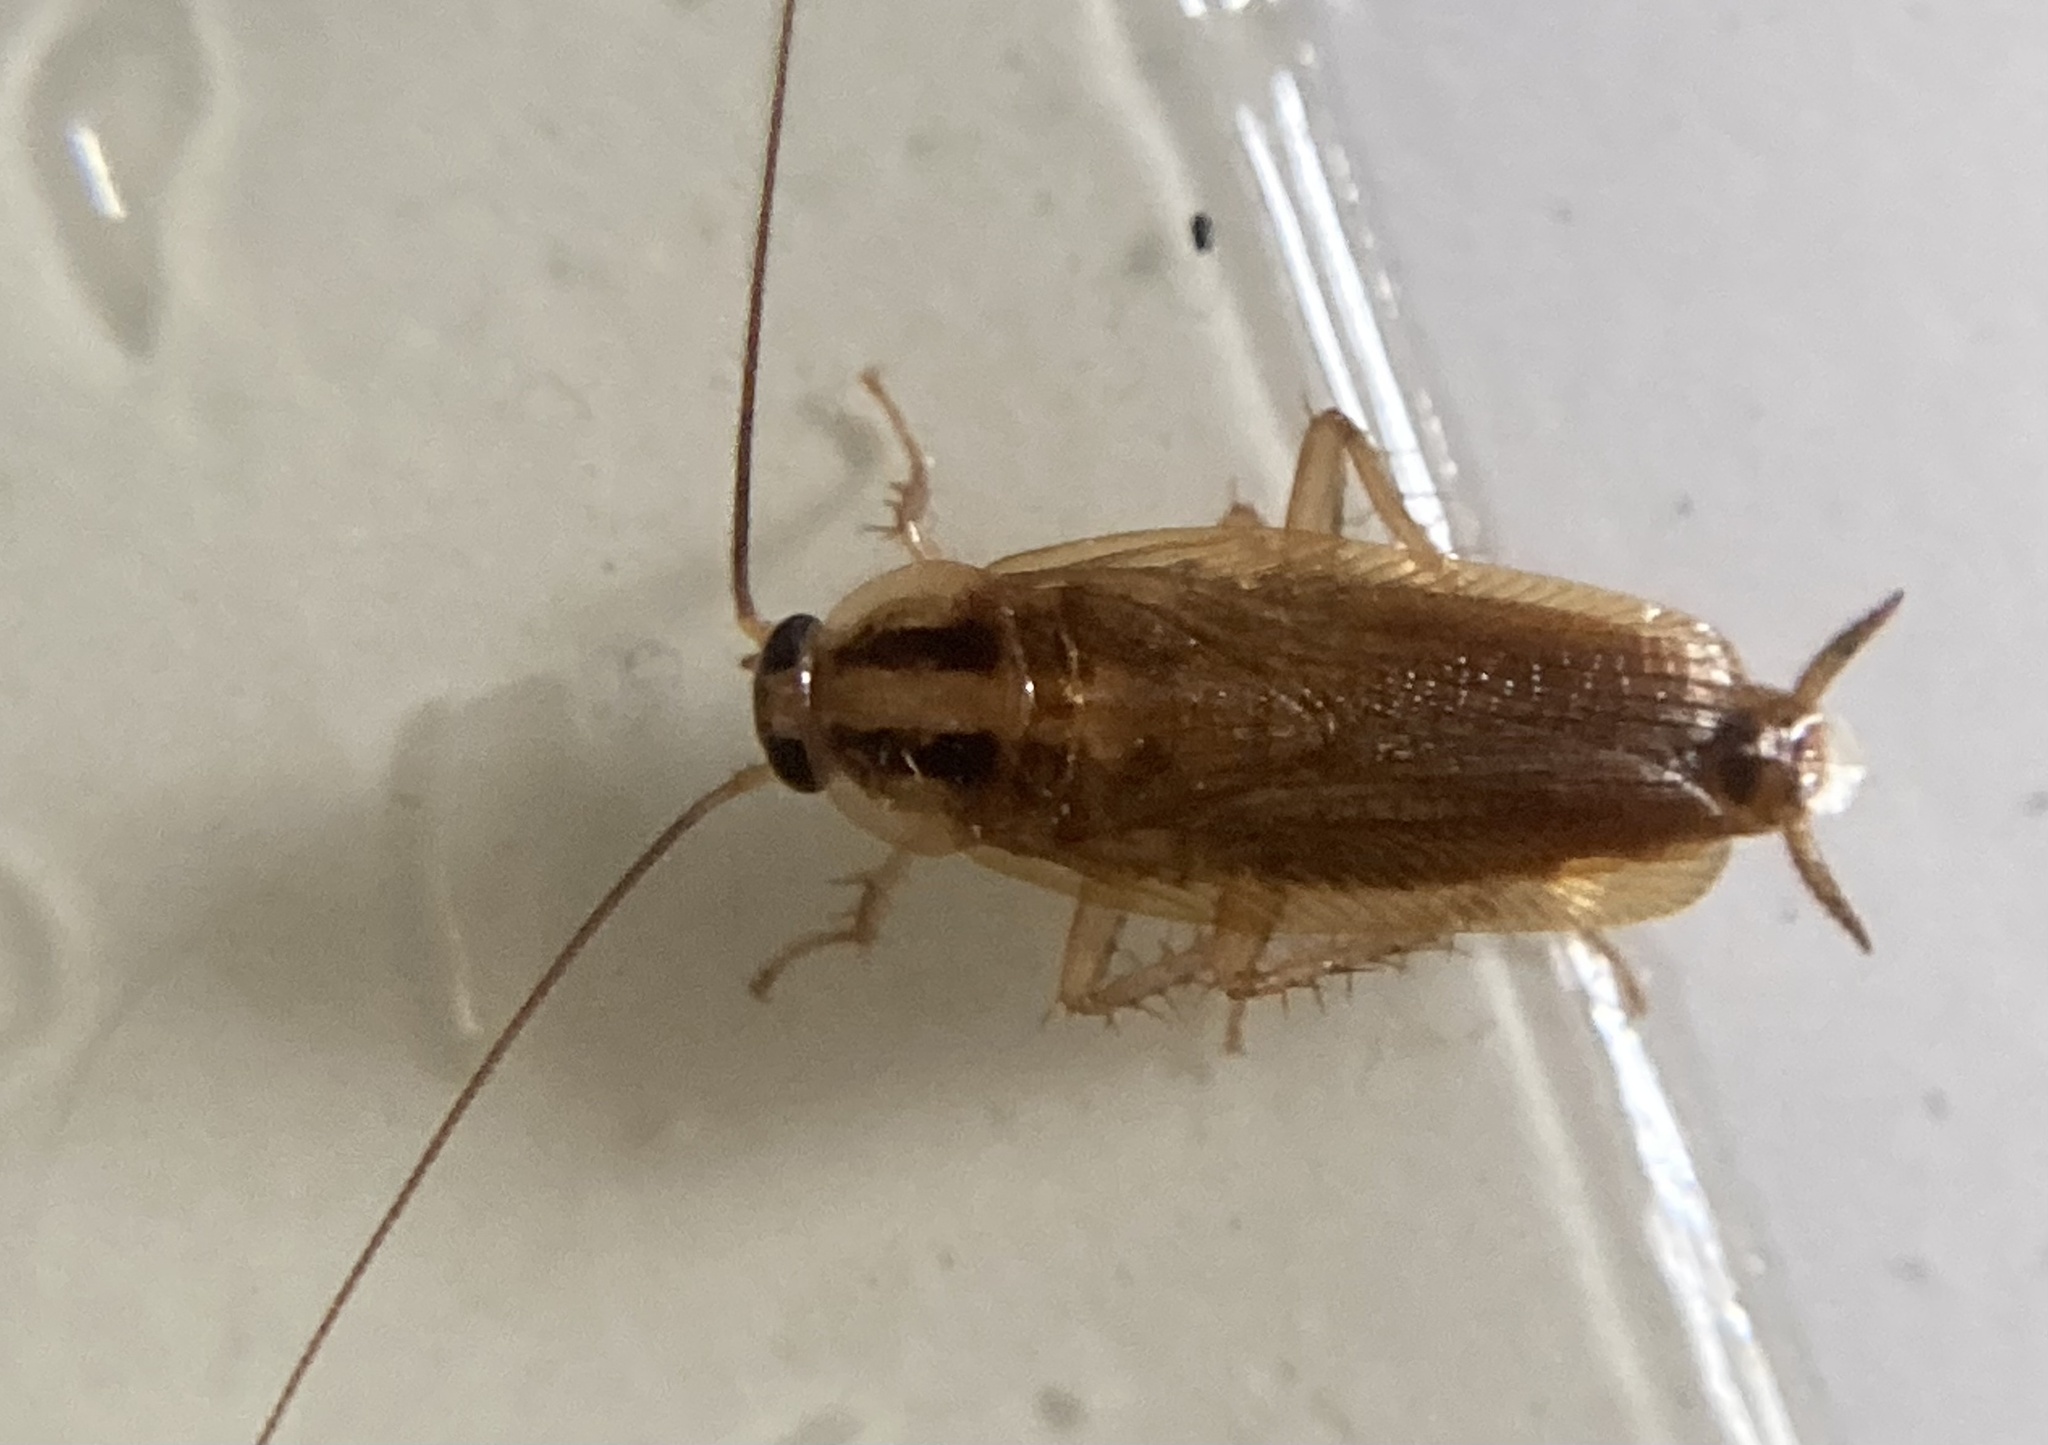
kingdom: Animalia
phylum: Arthropoda
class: Insecta
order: Blattodea
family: Ectobiidae
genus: Blattella
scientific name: Blattella germanica
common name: German cockroach
